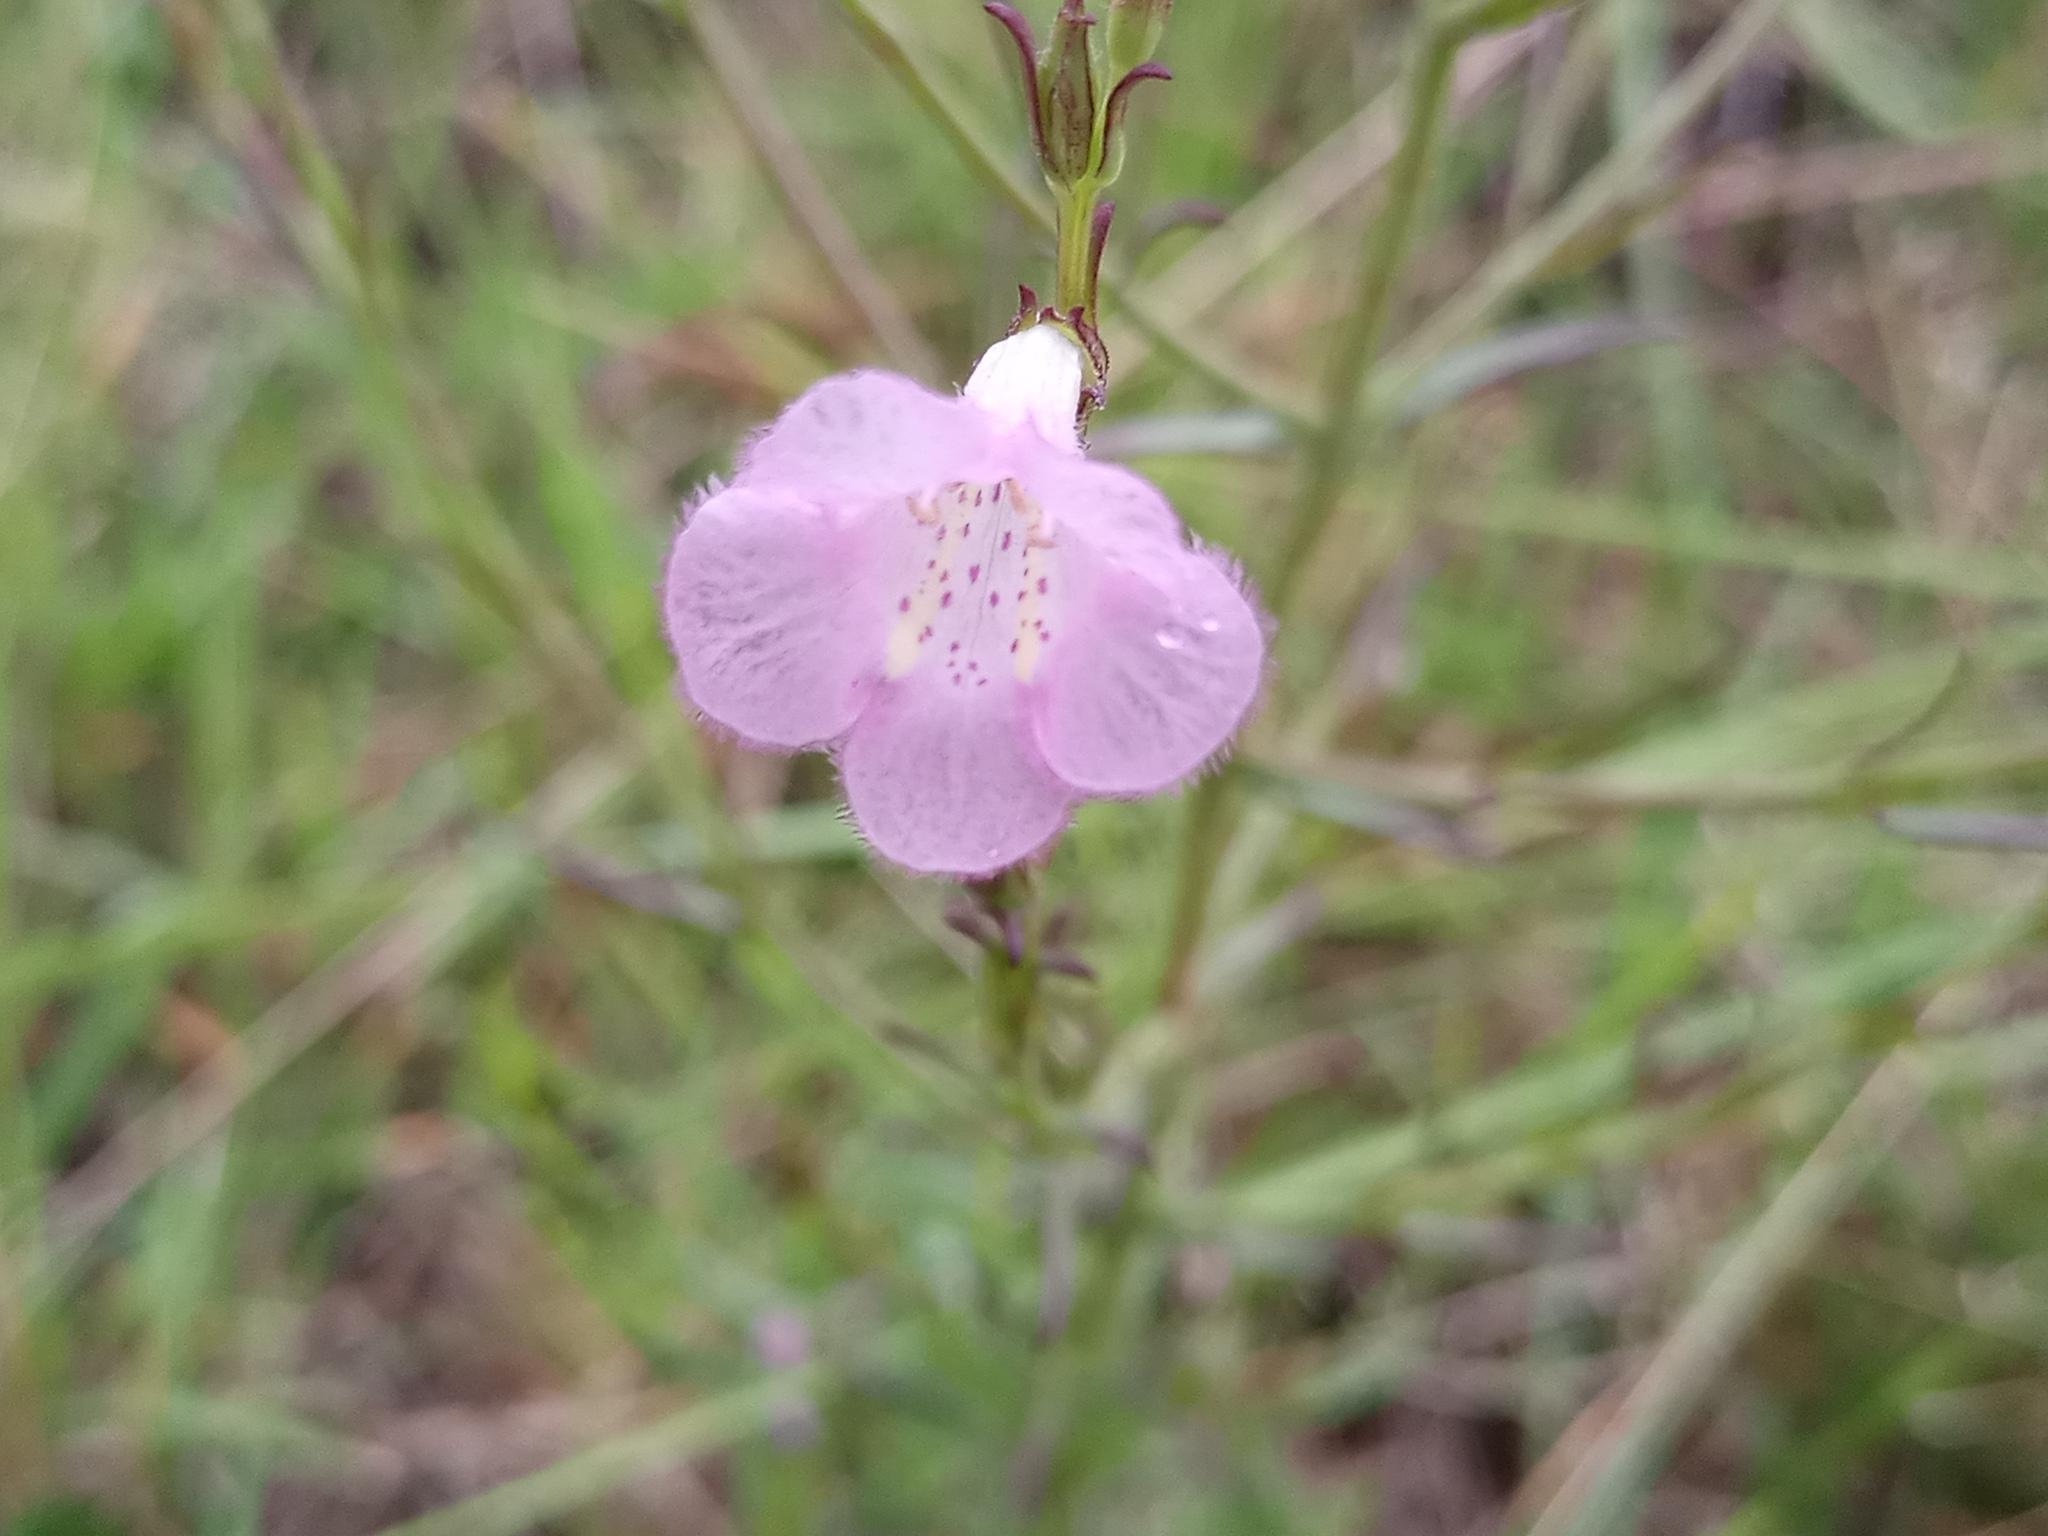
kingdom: Plantae
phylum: Tracheophyta
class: Magnoliopsida
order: Lamiales
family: Orobanchaceae
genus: Agalinis
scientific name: Agalinis communis
